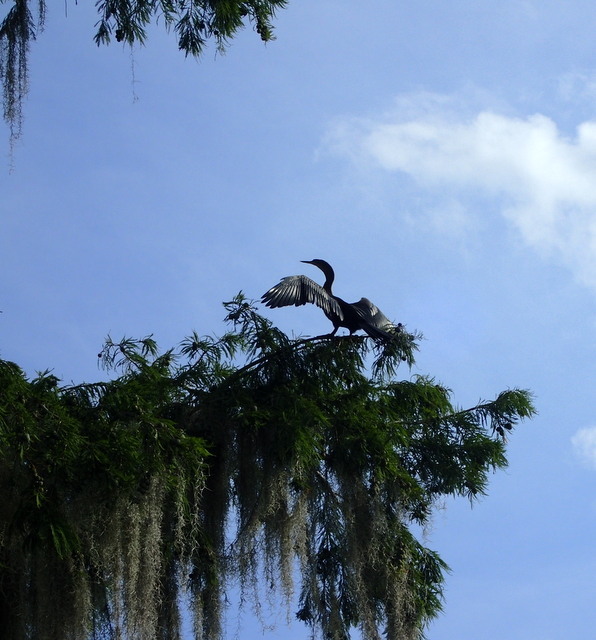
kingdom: Animalia
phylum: Chordata
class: Aves
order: Suliformes
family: Anhingidae
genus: Anhinga
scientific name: Anhinga anhinga
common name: Anhinga
